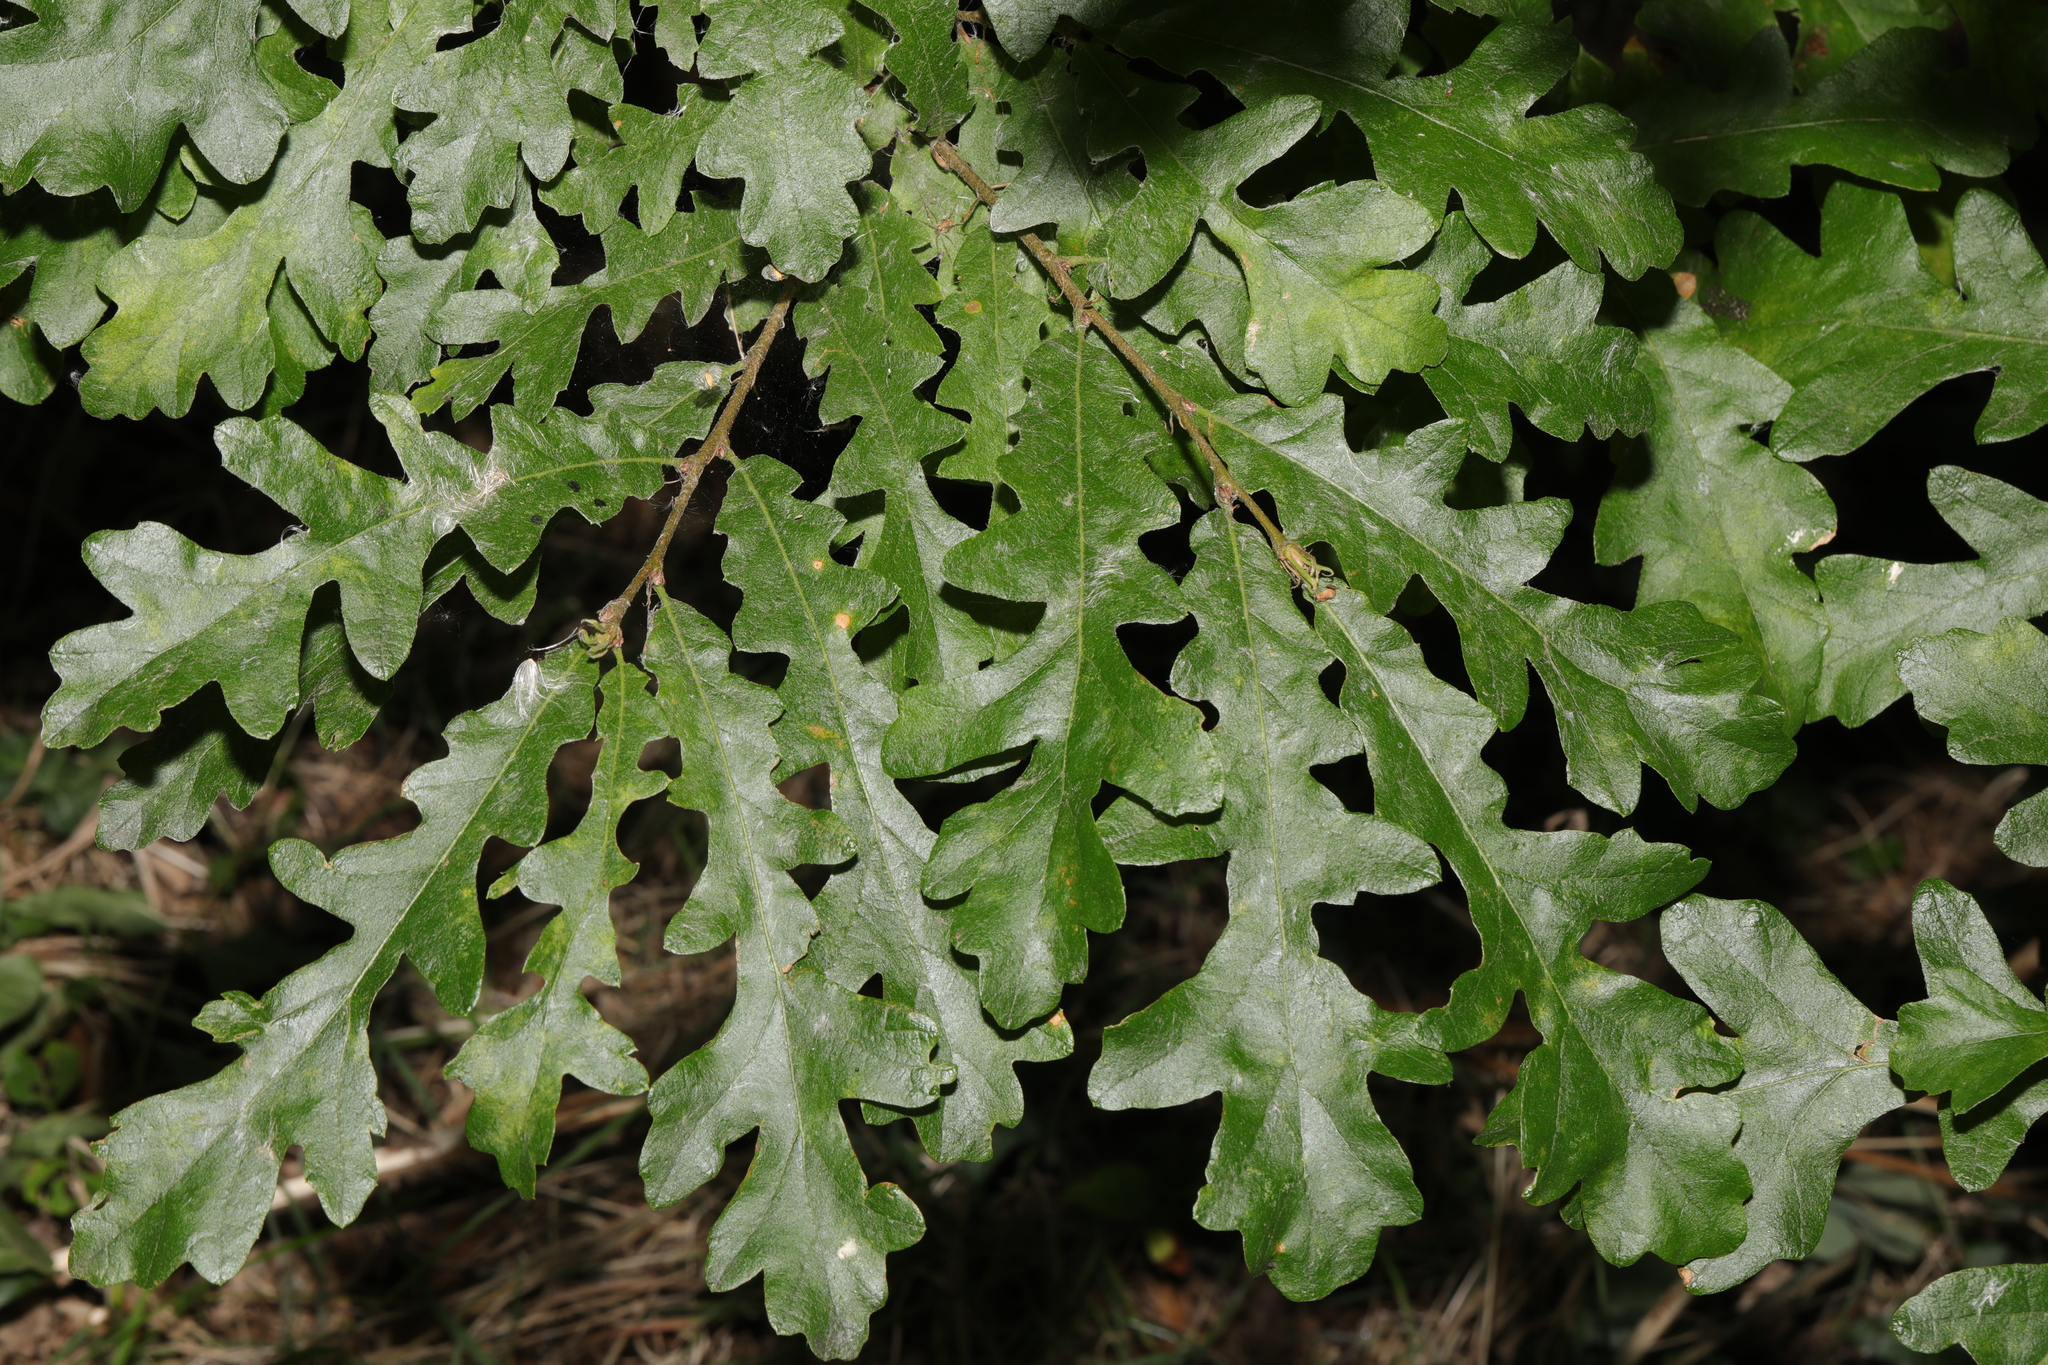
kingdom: Plantae
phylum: Tracheophyta
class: Magnoliopsida
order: Fagales
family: Fagaceae
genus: Quercus
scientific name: Quercus cerris
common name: Turkey oak
